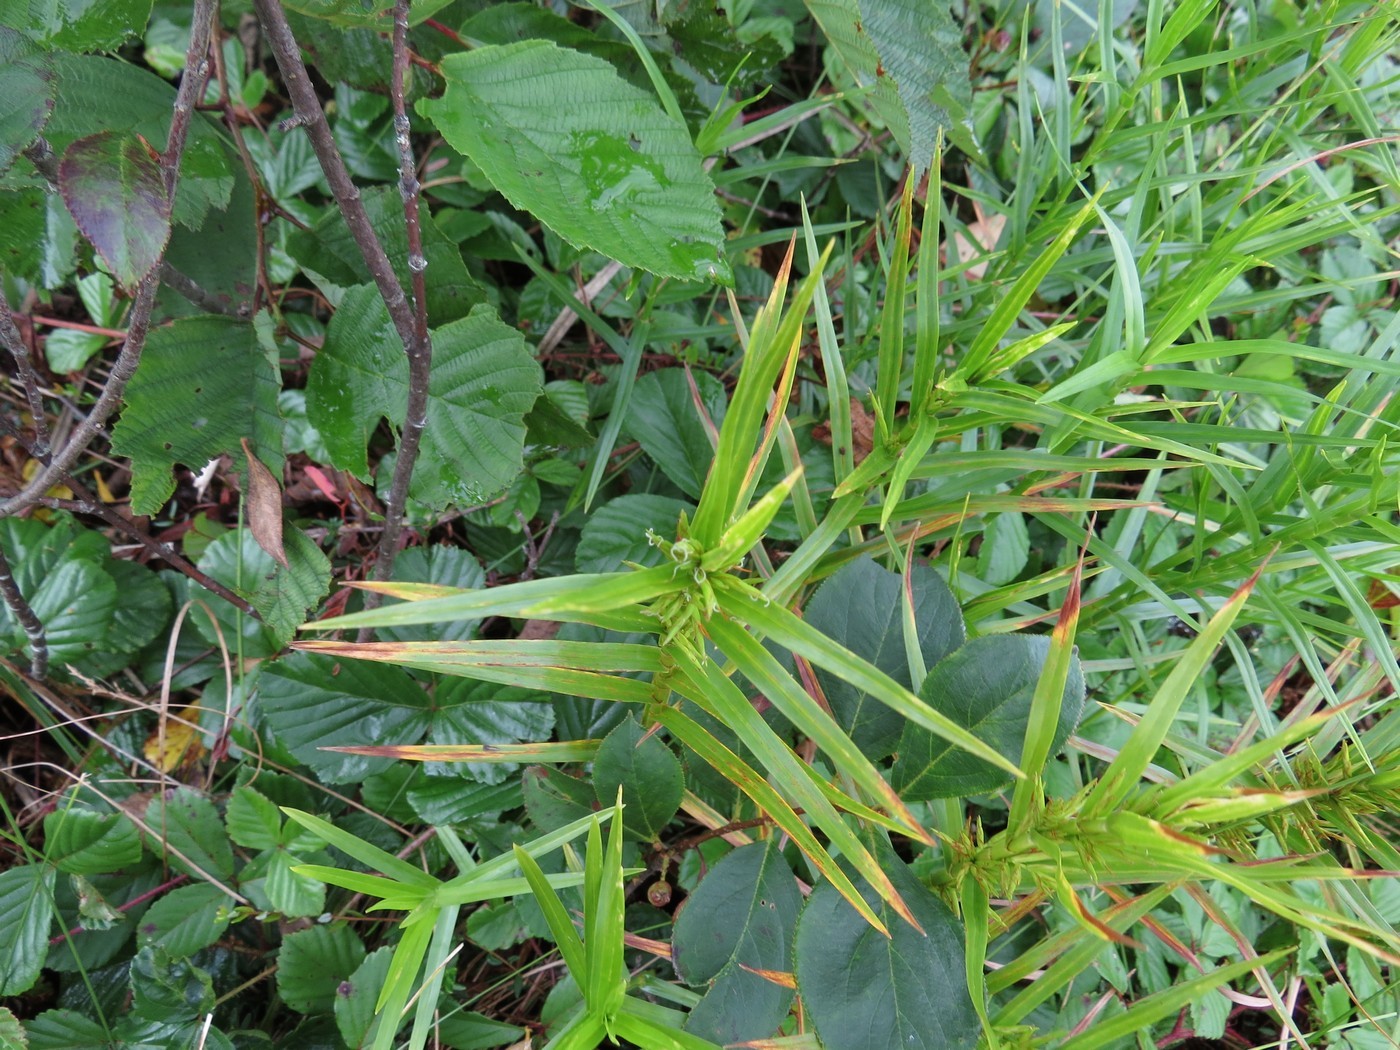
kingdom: Plantae
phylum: Tracheophyta
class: Liliopsida
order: Poales
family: Cyperaceae
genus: Dulichium
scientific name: Dulichium arundinaceum
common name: Three-way sedge
